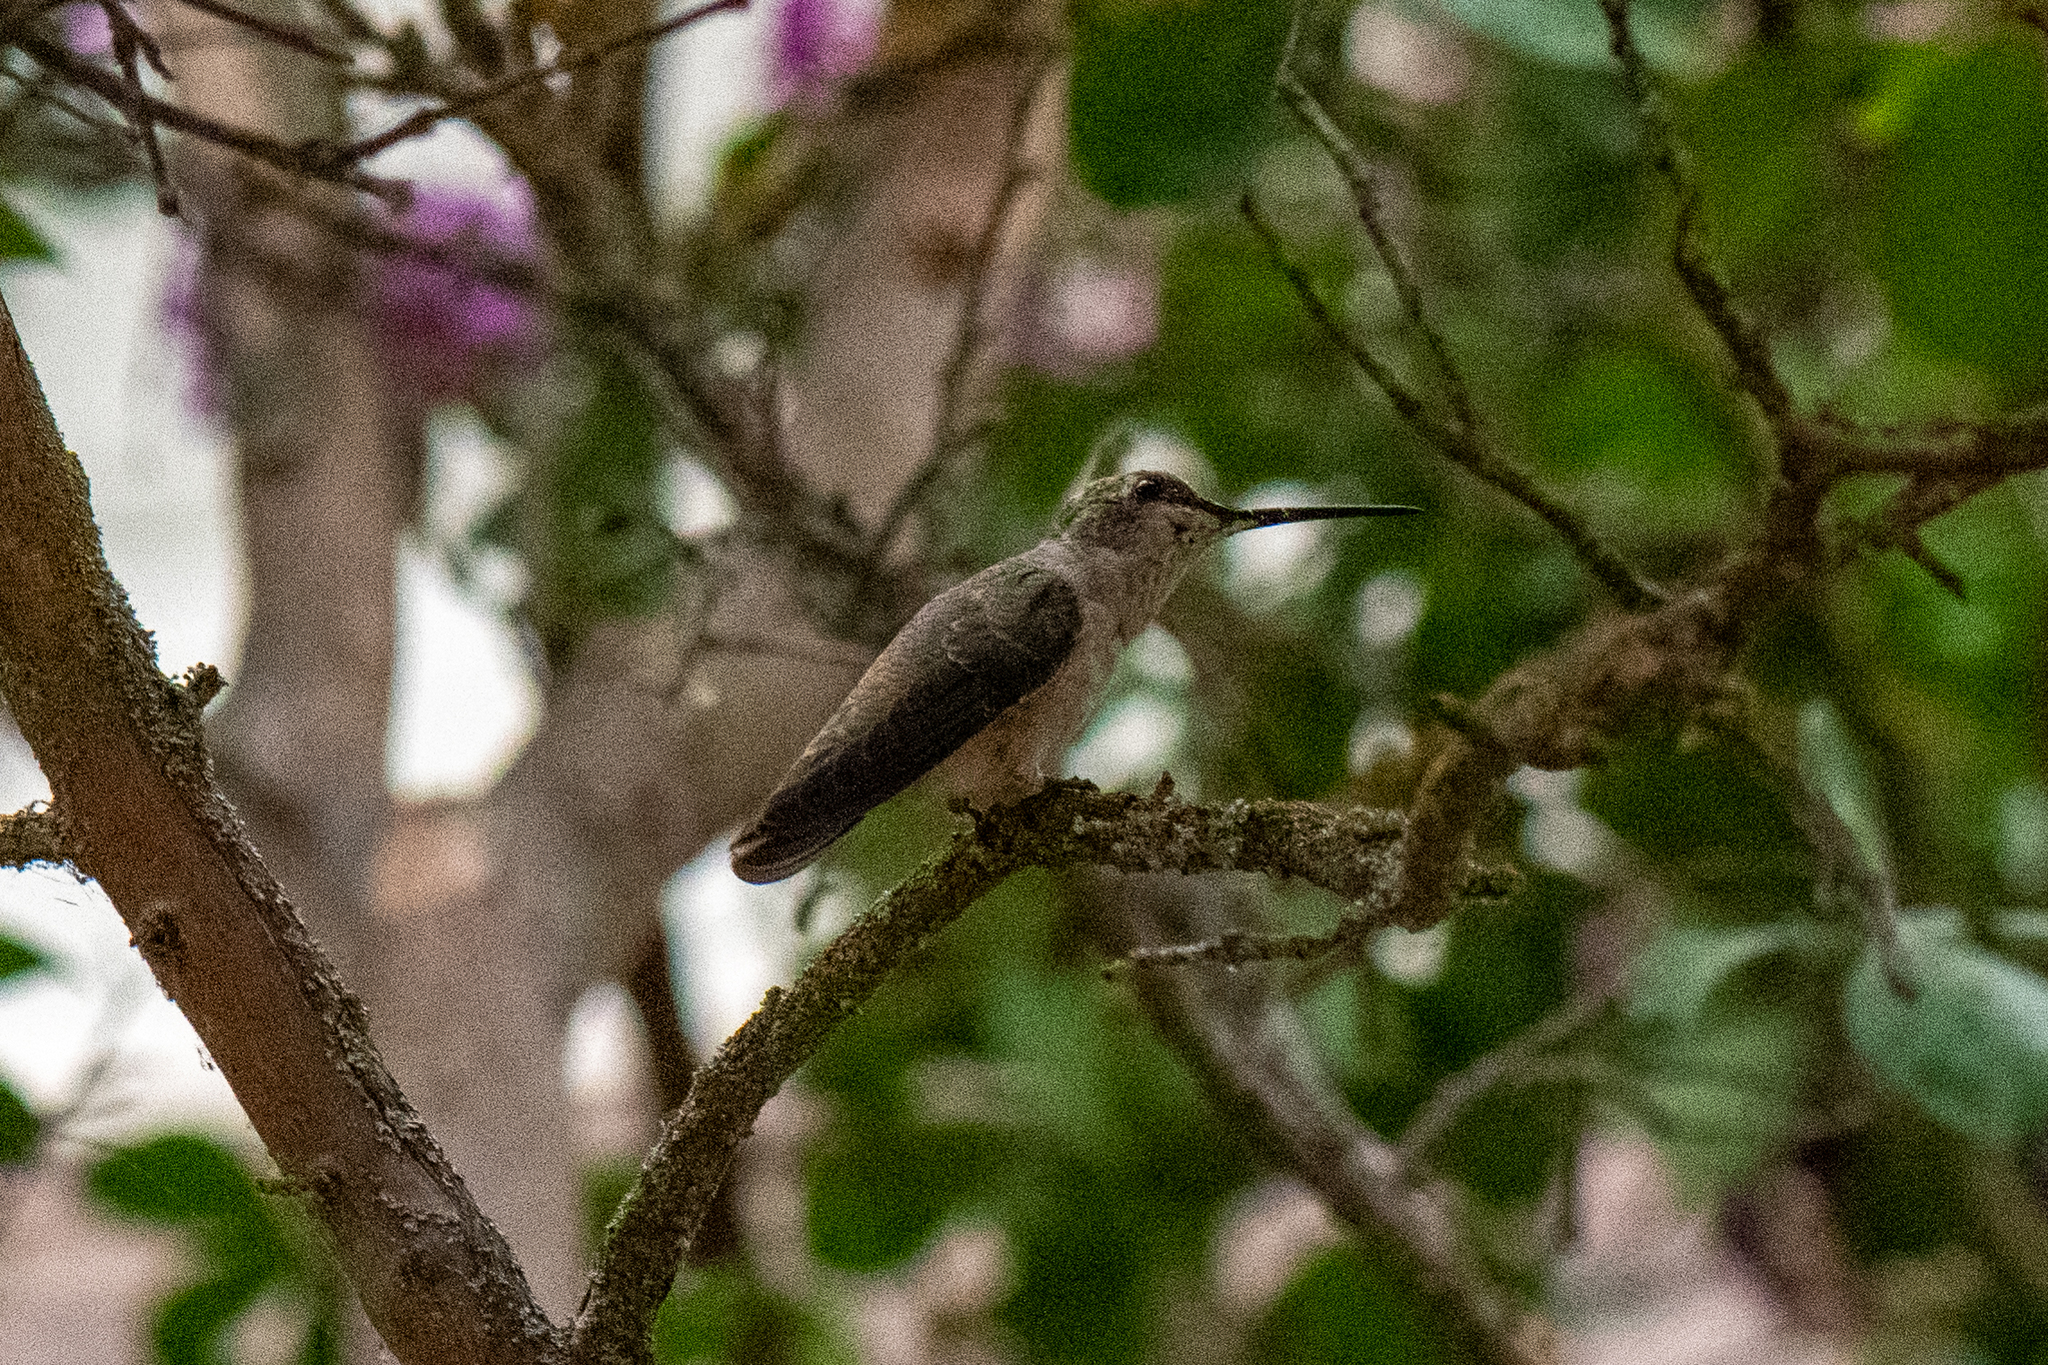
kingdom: Animalia
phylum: Chordata
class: Aves
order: Apodiformes
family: Trochilidae
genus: Archilochus
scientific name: Archilochus alexandri
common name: Black-chinned hummingbird
